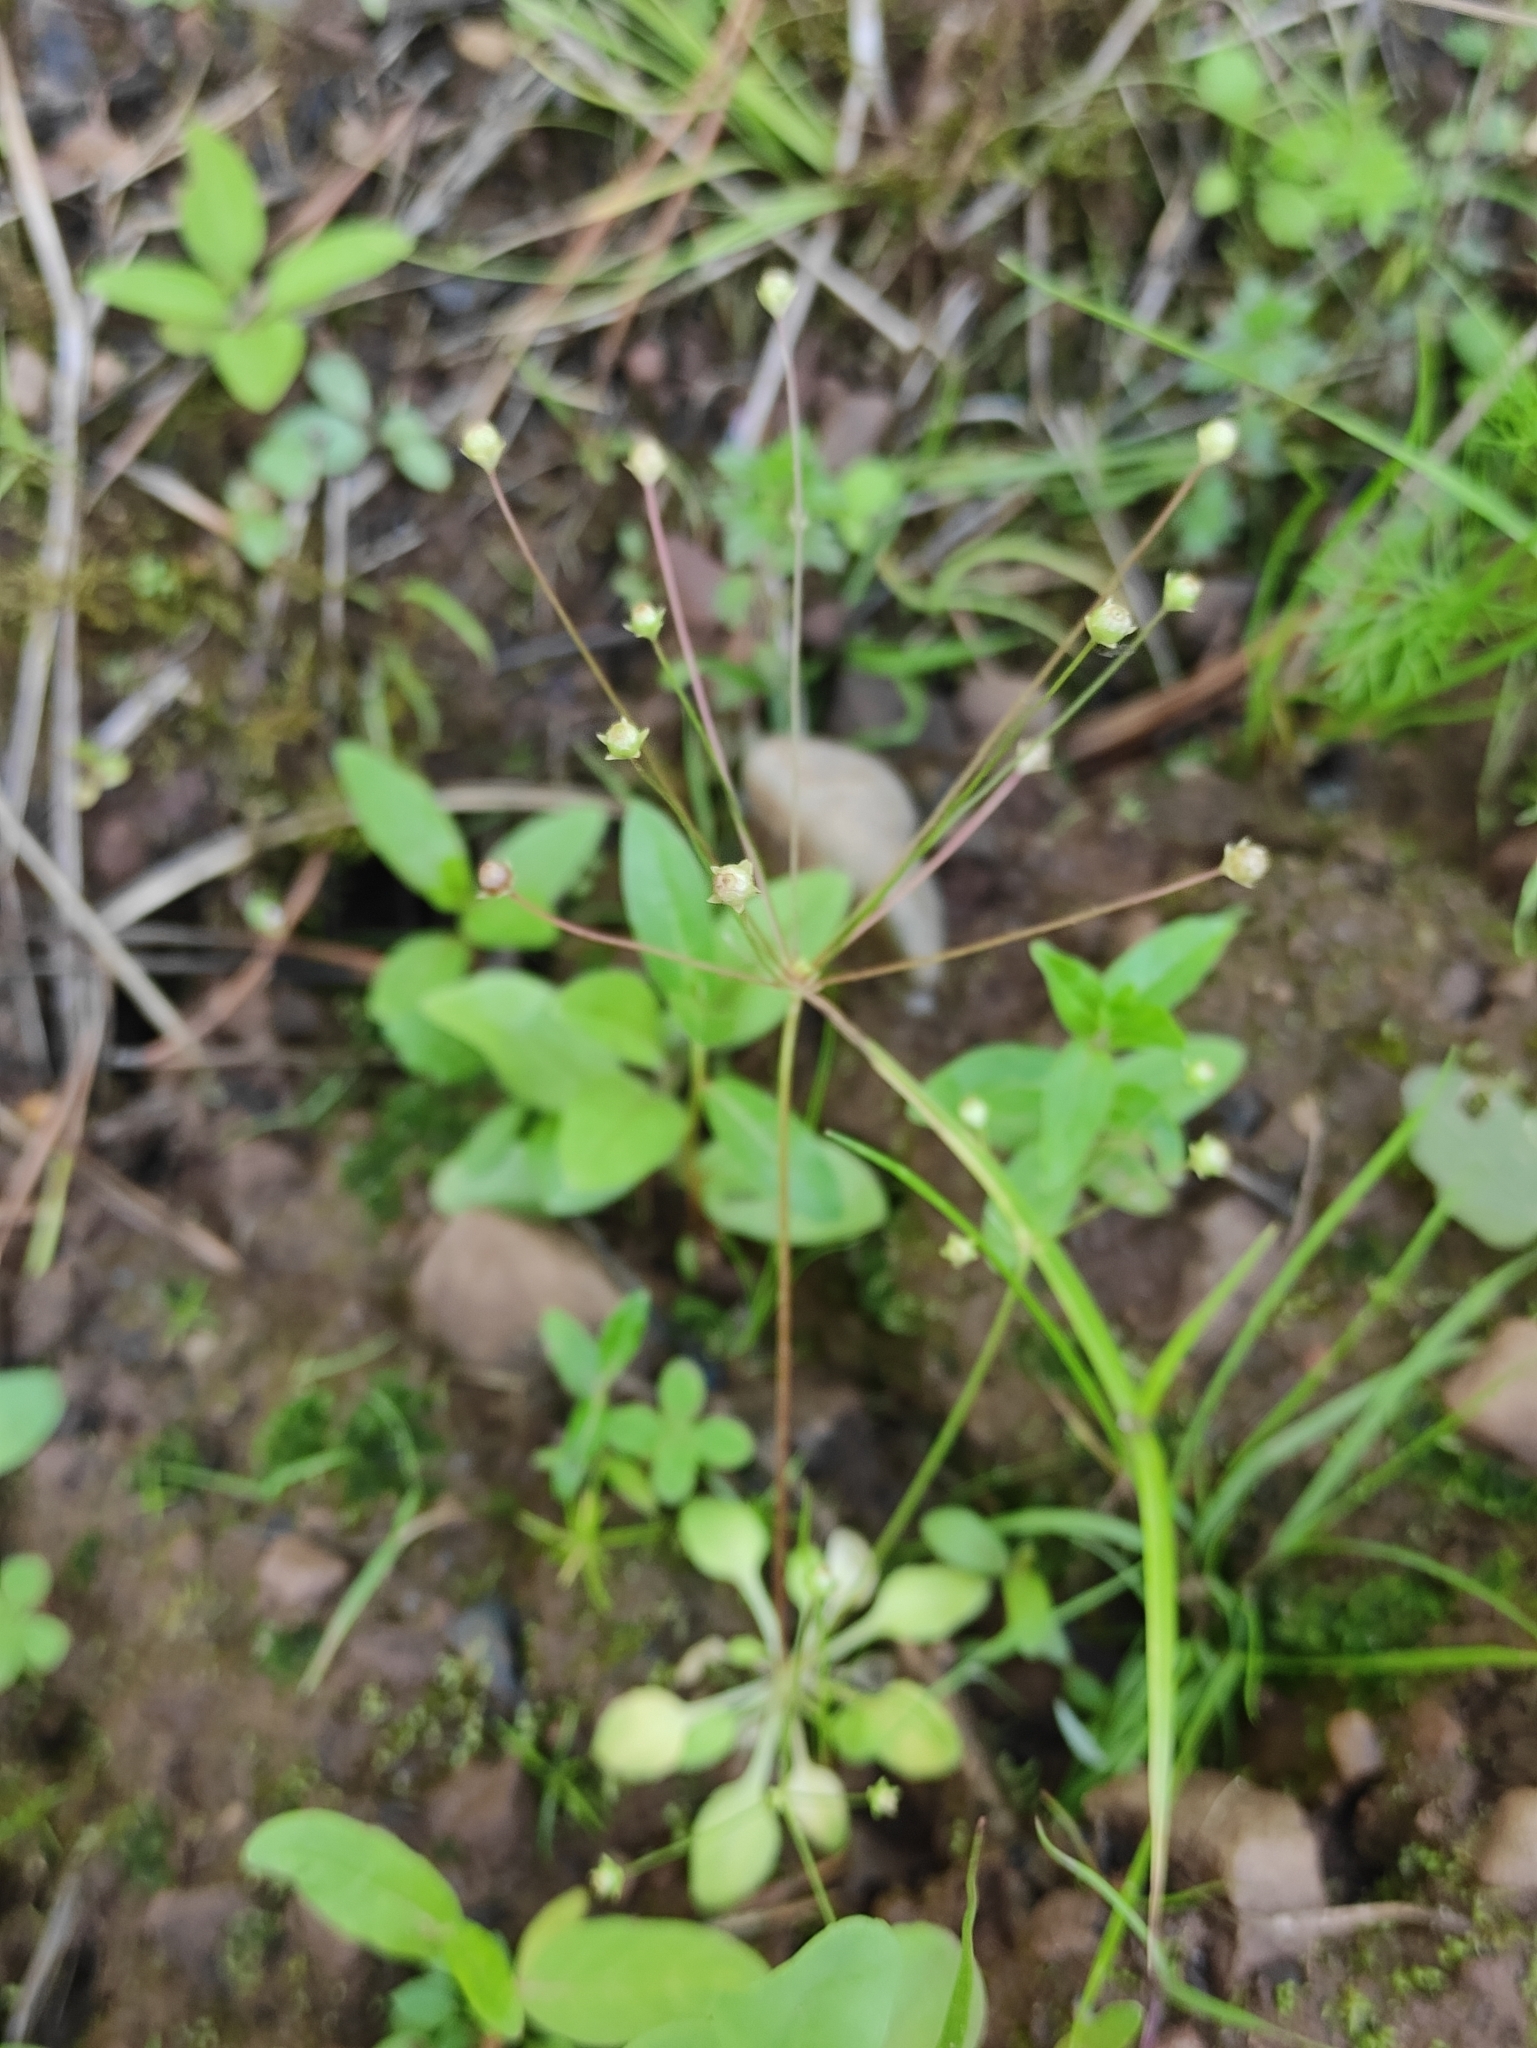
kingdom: Plantae
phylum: Tracheophyta
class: Magnoliopsida
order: Ericales
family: Primulaceae
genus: Androsace
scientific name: Androsace filiformis
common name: Filiform rock jasmine
